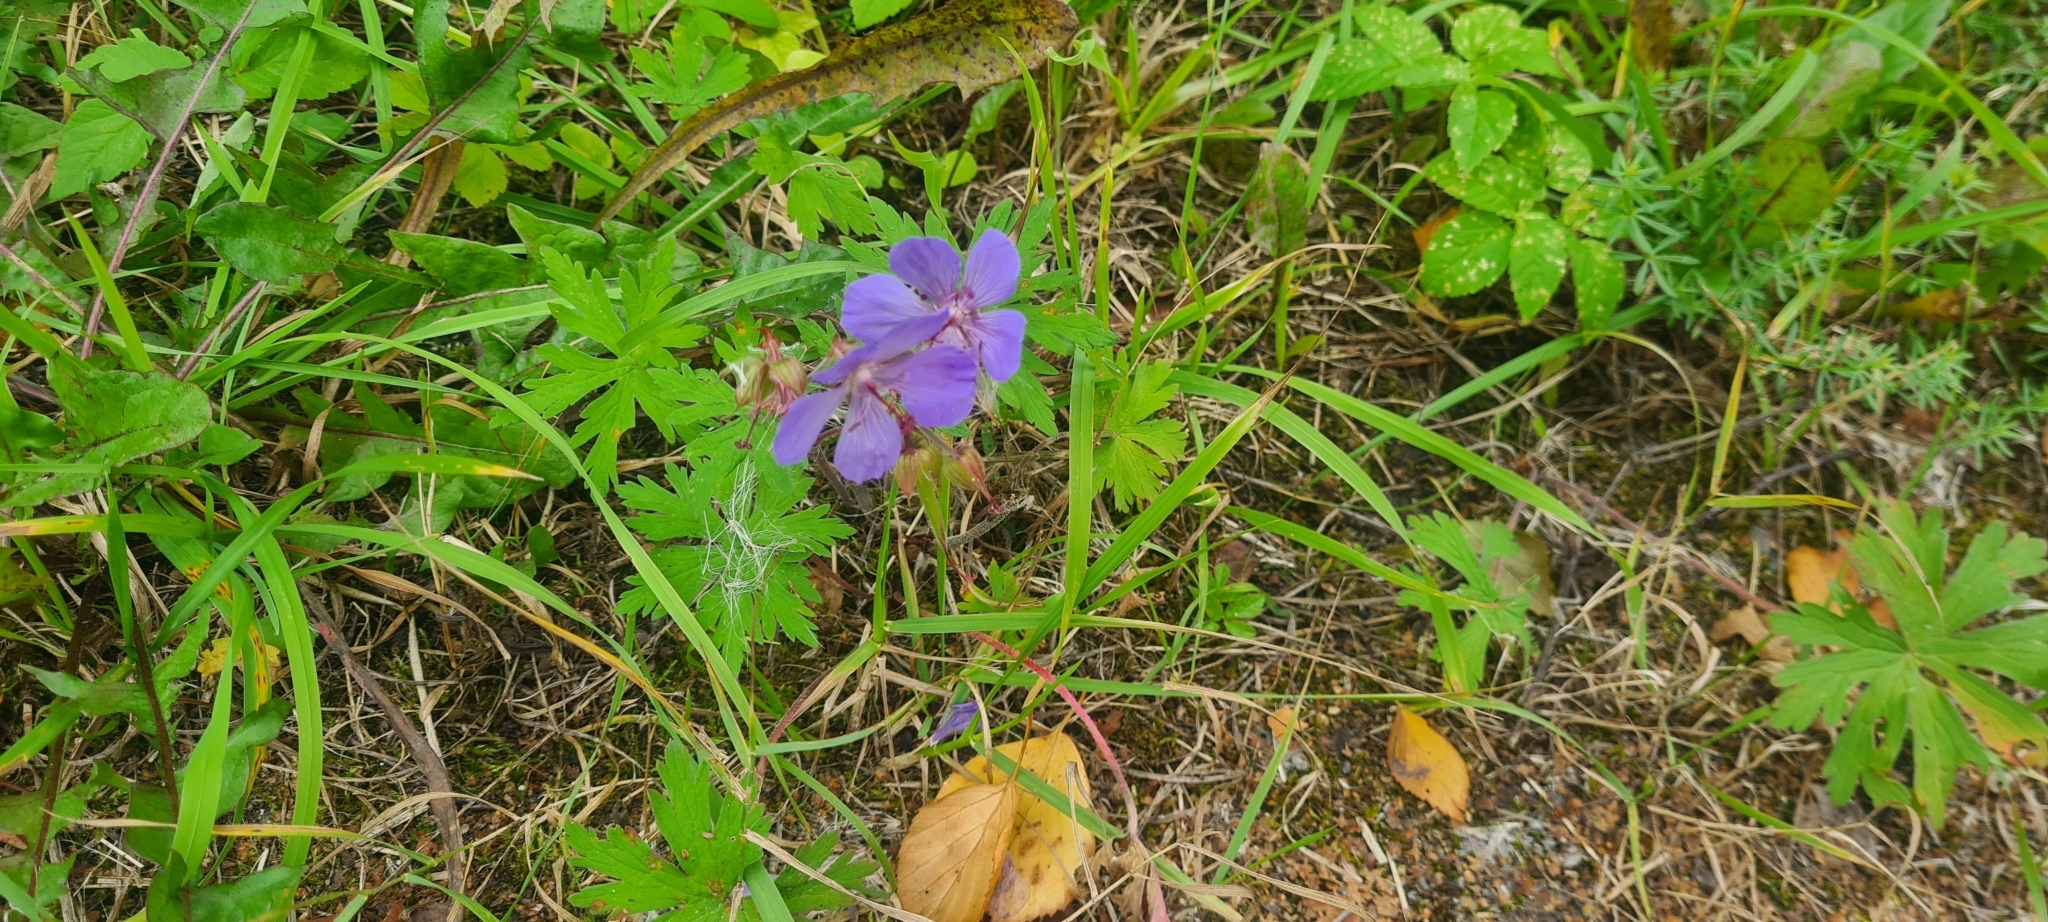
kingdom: Plantae
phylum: Tracheophyta
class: Magnoliopsida
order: Geraniales
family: Geraniaceae
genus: Geranium
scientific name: Geranium pratense
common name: Meadow crane's-bill
